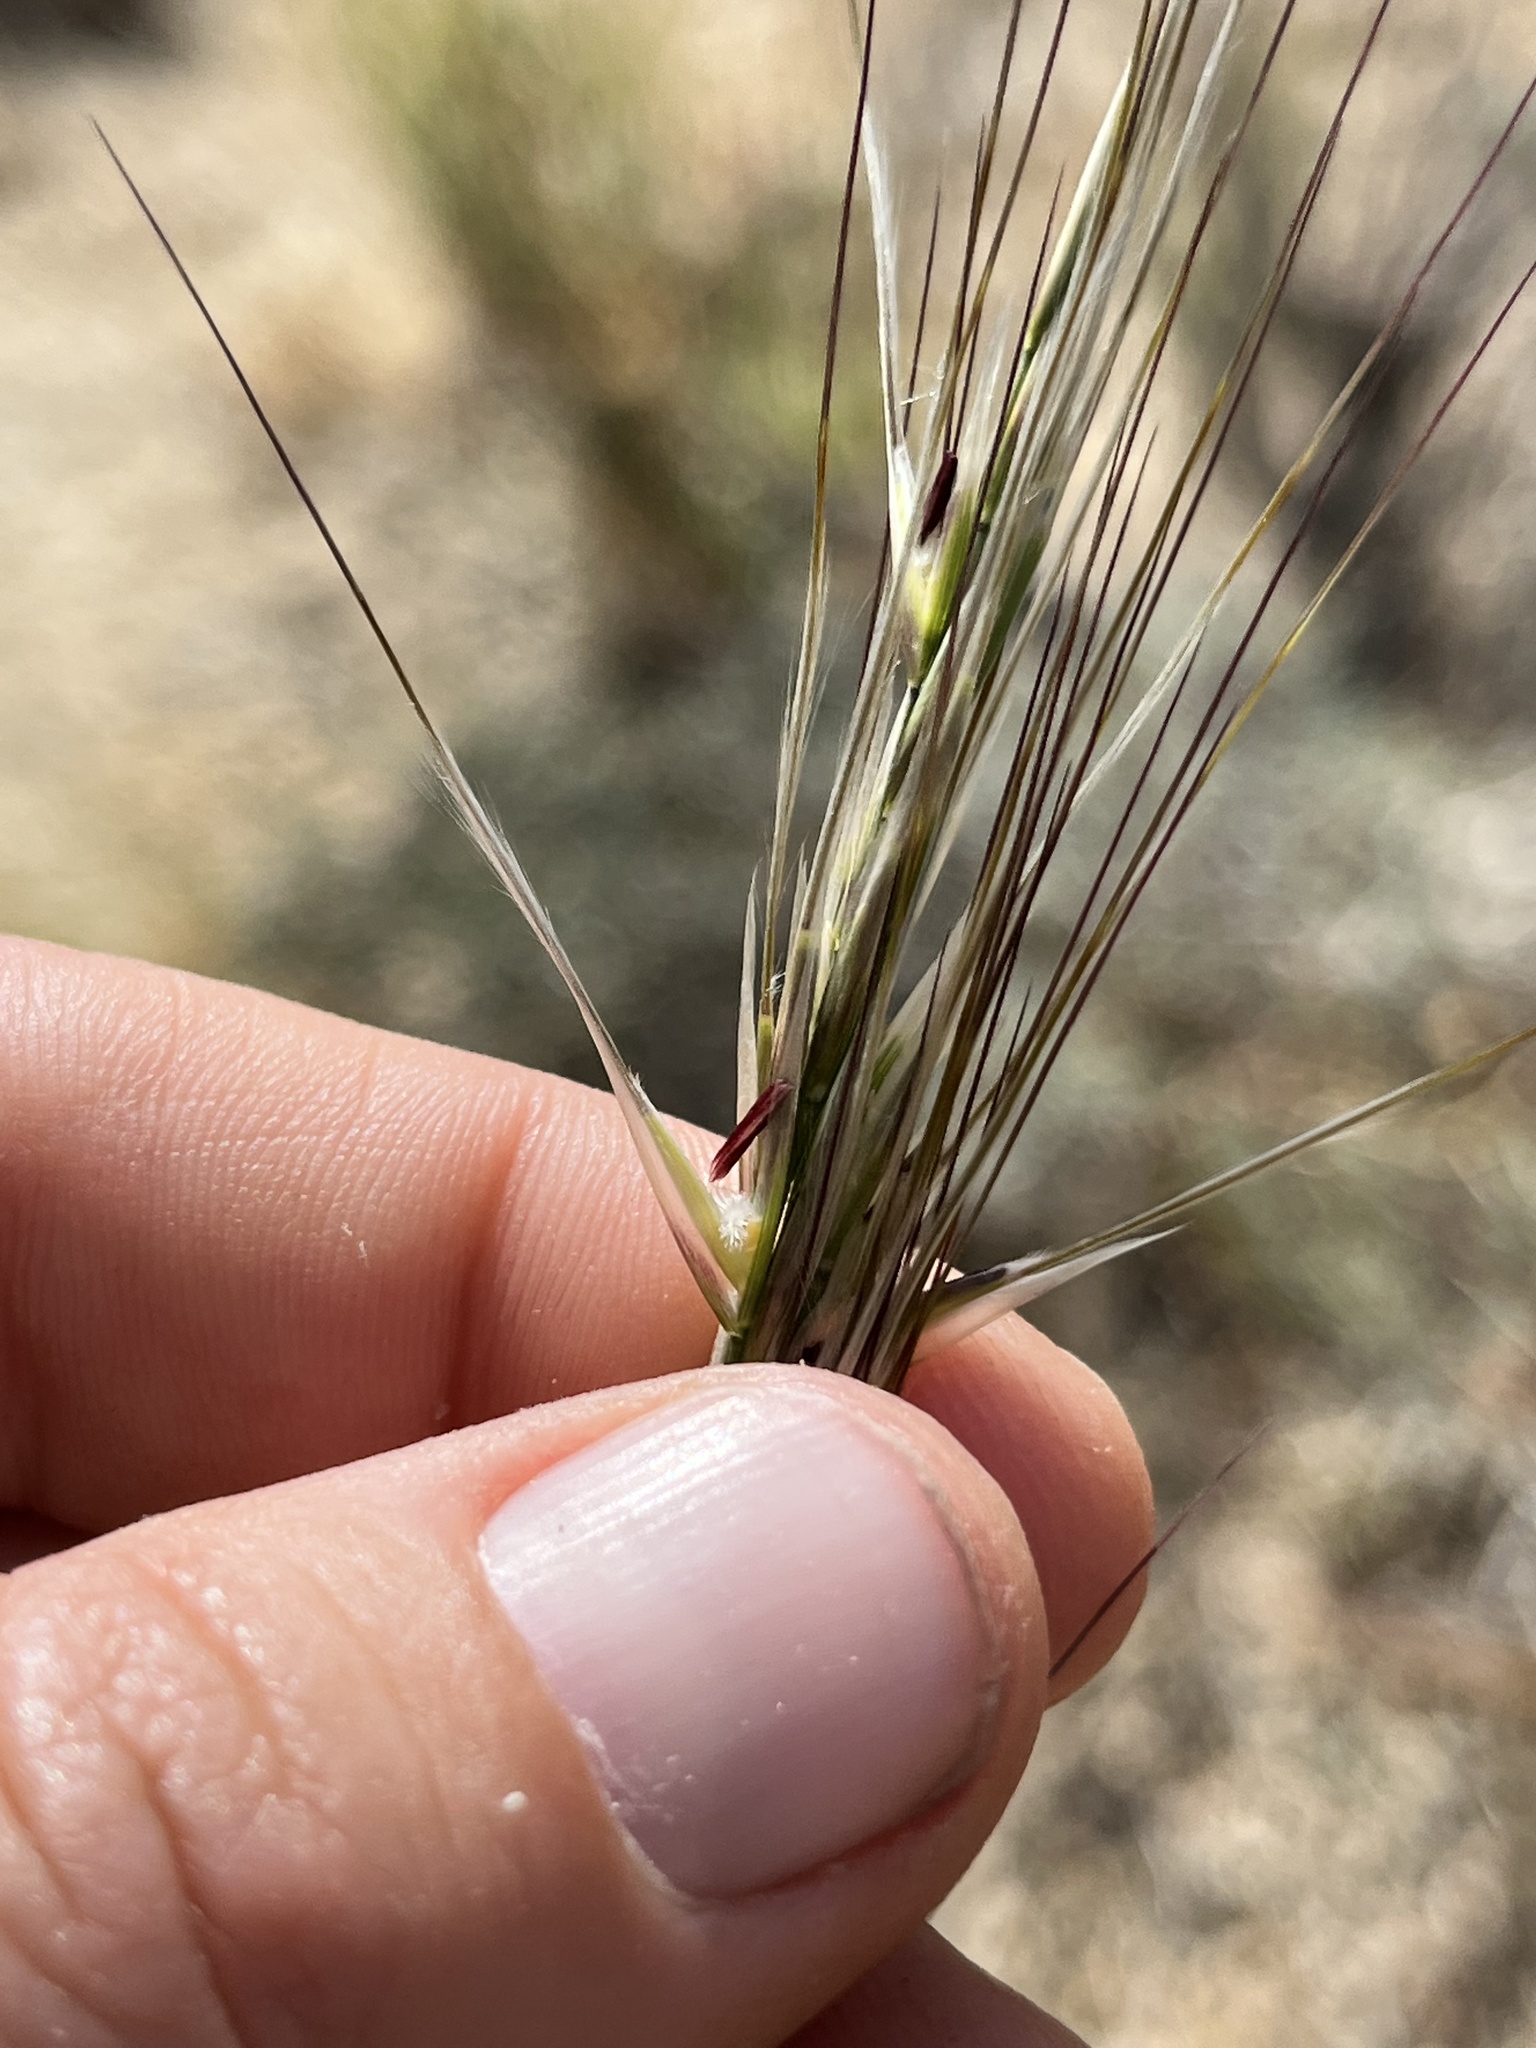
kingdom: Plantae
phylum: Tracheophyta
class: Liliopsida
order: Poales
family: Poaceae
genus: Pappostipa
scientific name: Pappostipa speciosa
